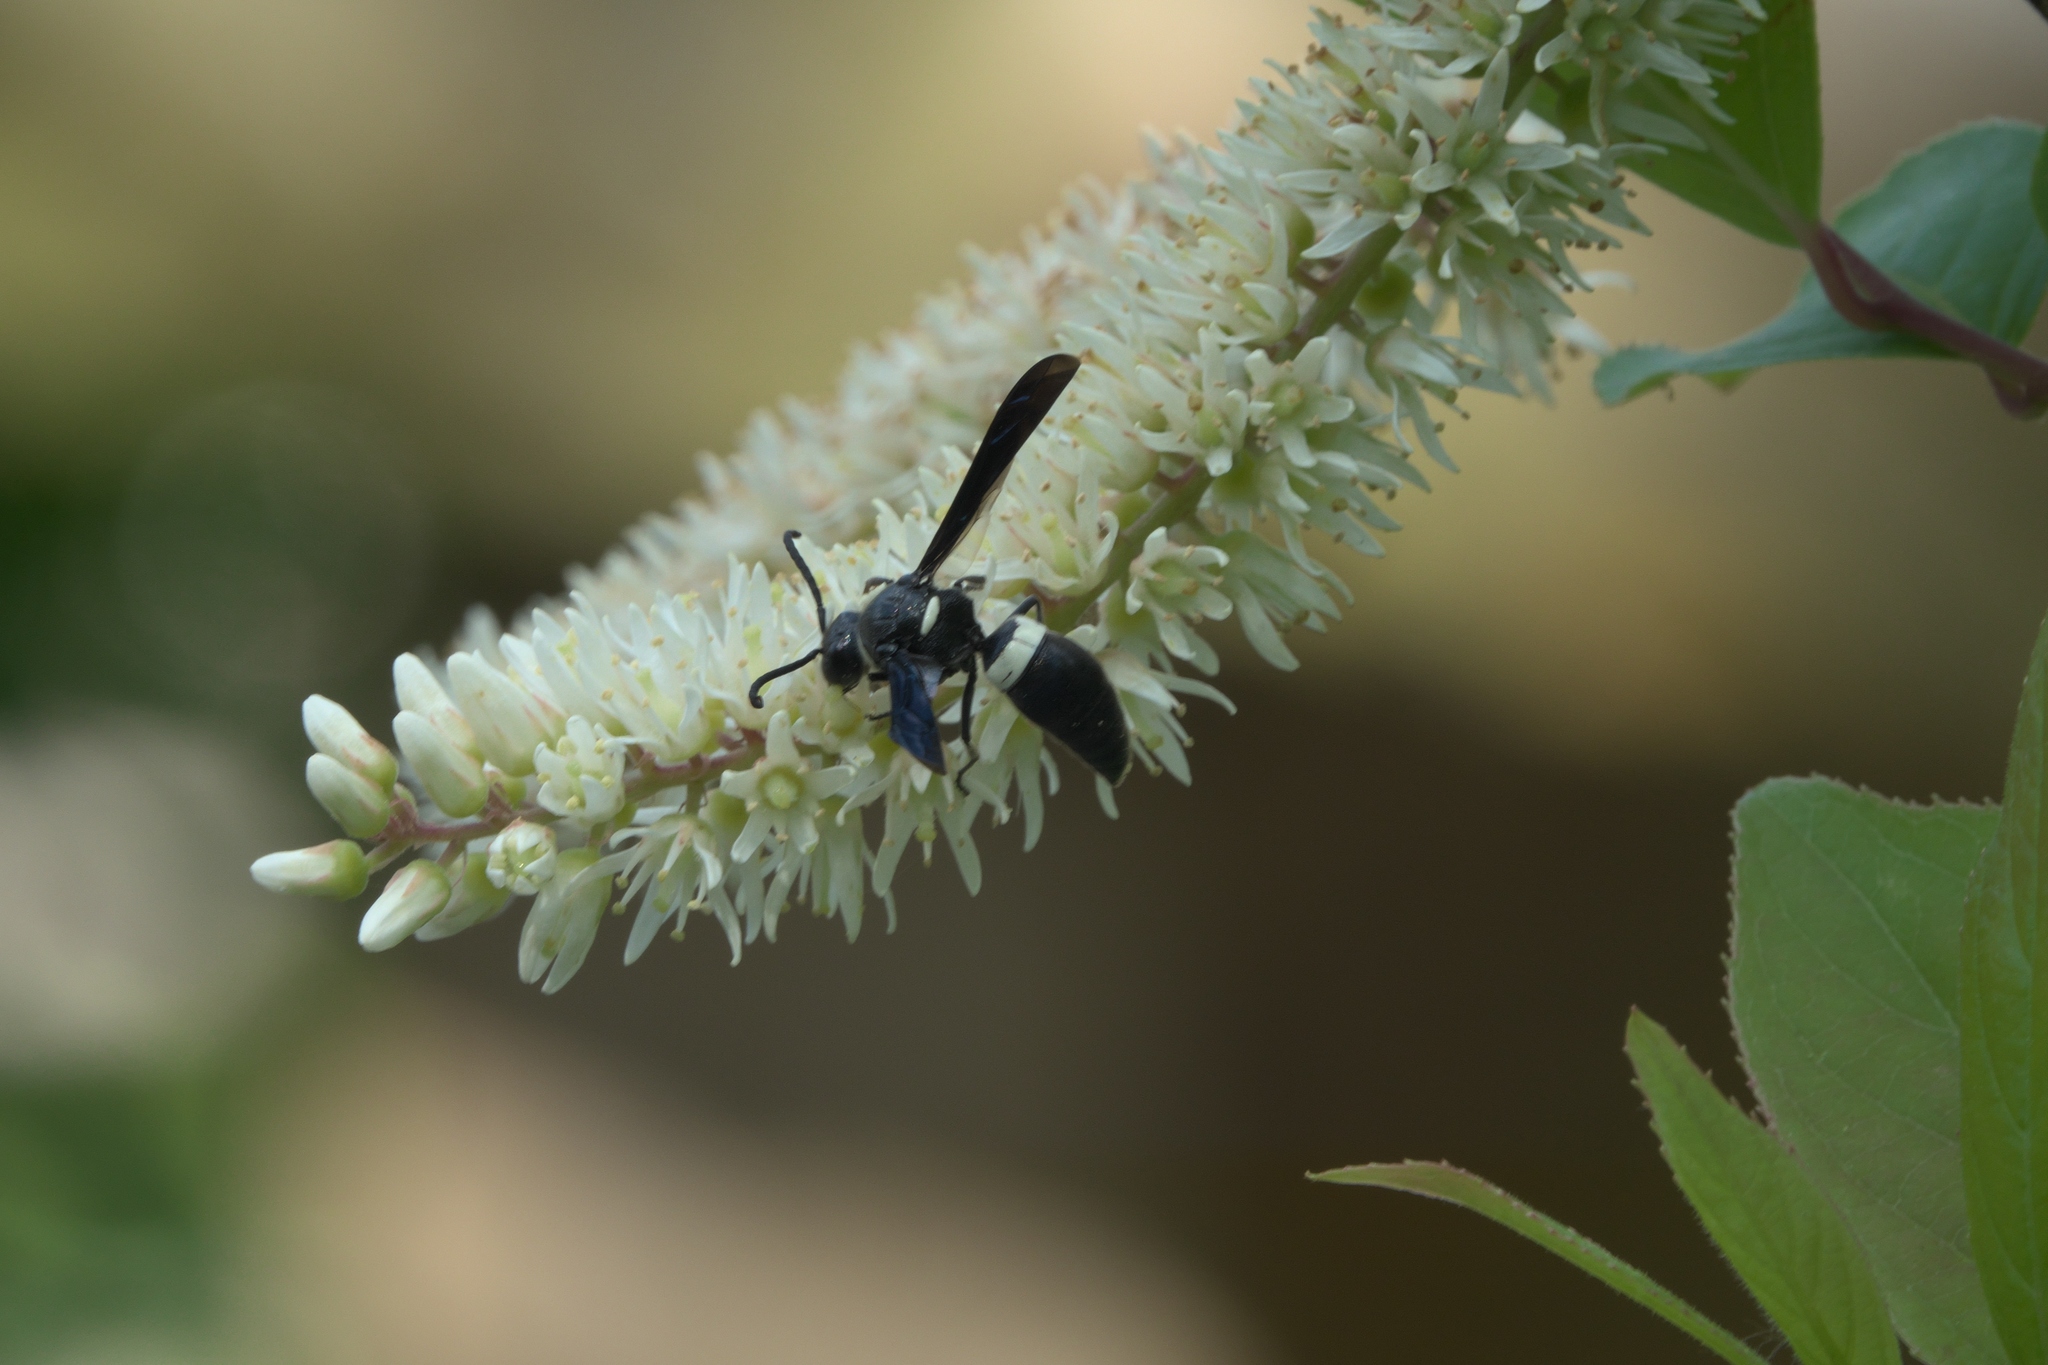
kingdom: Animalia
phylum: Arthropoda
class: Insecta
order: Hymenoptera
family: Eumenidae
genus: Monobia
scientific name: Monobia quadridens
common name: Four-toothed mason wasp
